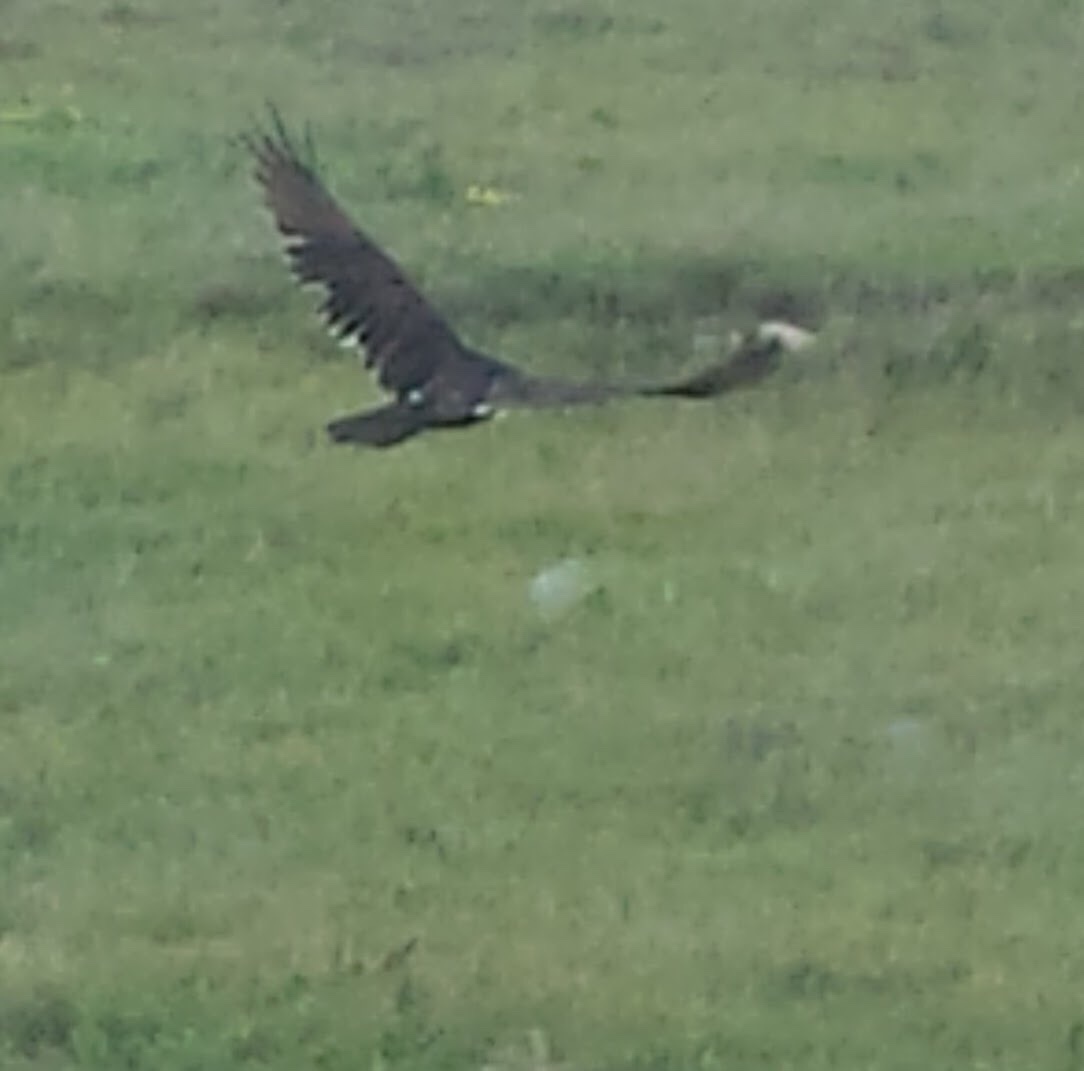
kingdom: Animalia
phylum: Chordata
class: Aves
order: Accipitriformes
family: Cathartidae
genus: Cathartes
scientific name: Cathartes aura
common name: Turkey vulture
